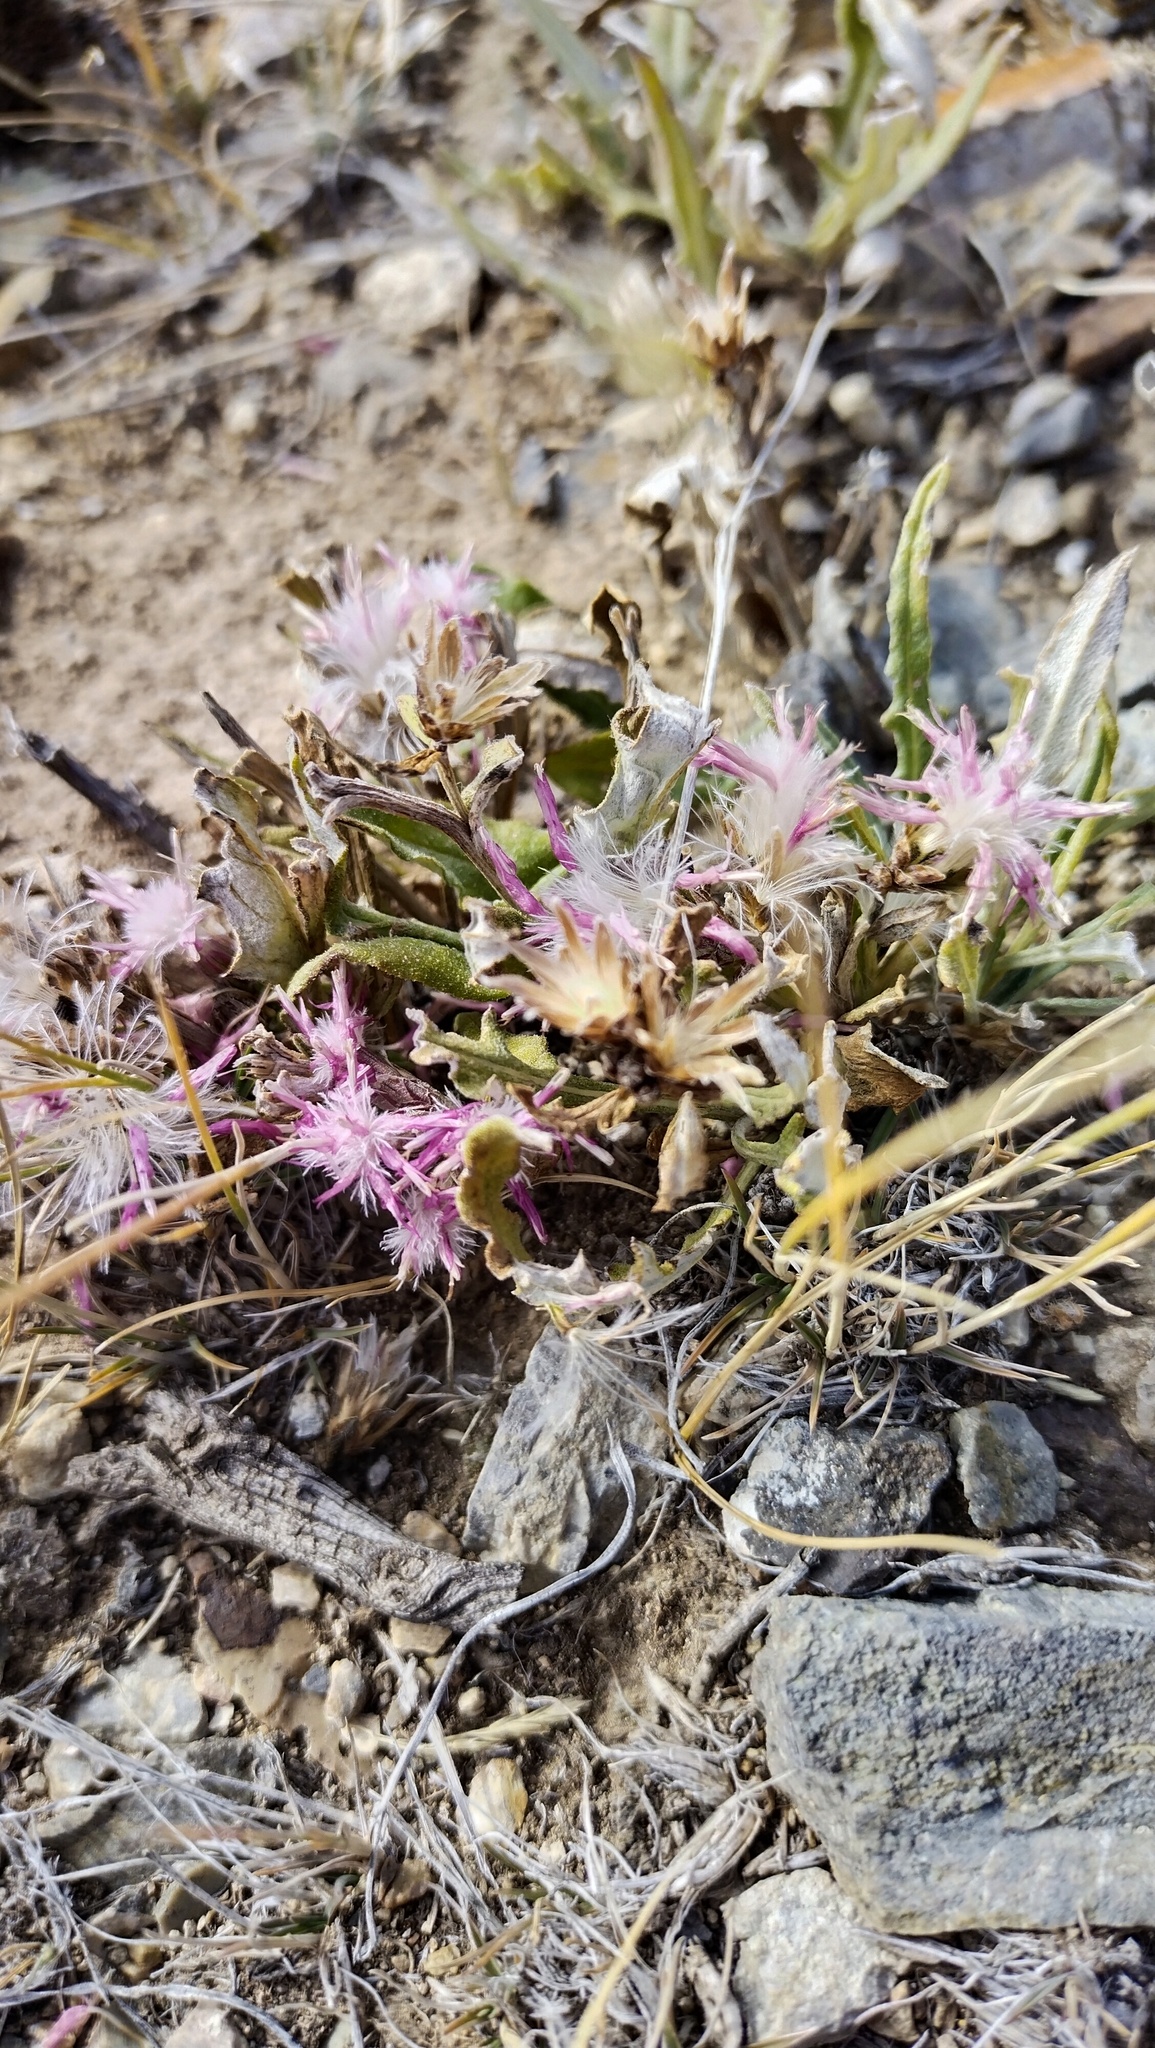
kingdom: Plantae
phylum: Tracheophyta
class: Magnoliopsida
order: Asterales
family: Asteraceae
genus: Saussurea
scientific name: Saussurea pricei
